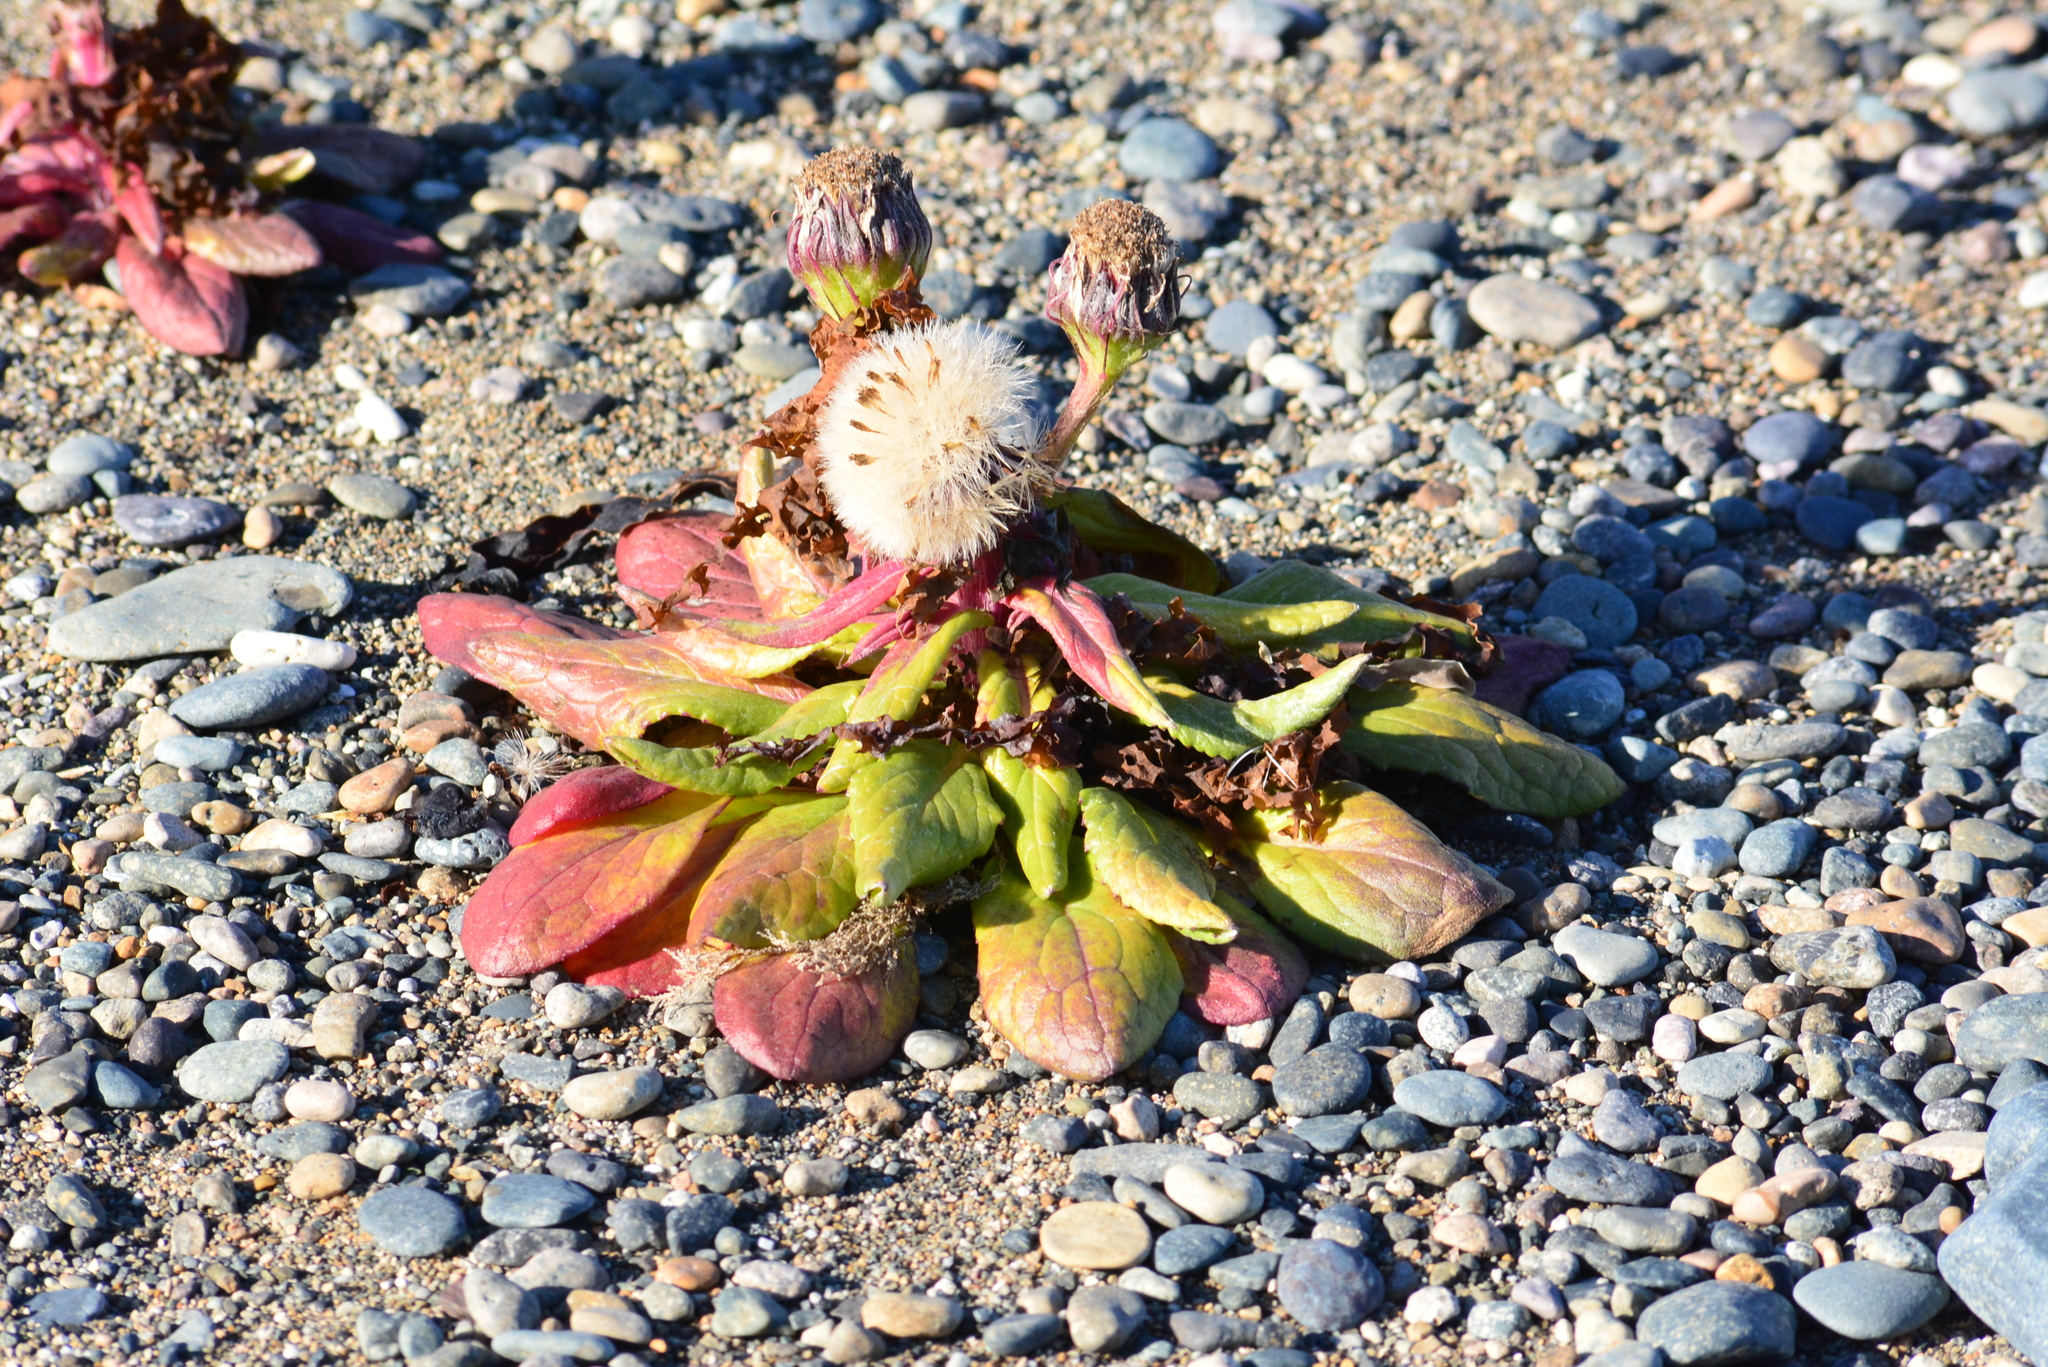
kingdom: Plantae
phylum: Tracheophyta
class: Magnoliopsida
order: Asterales
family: Asteraceae
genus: Jacobaea
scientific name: Jacobaea pseudoarnica
